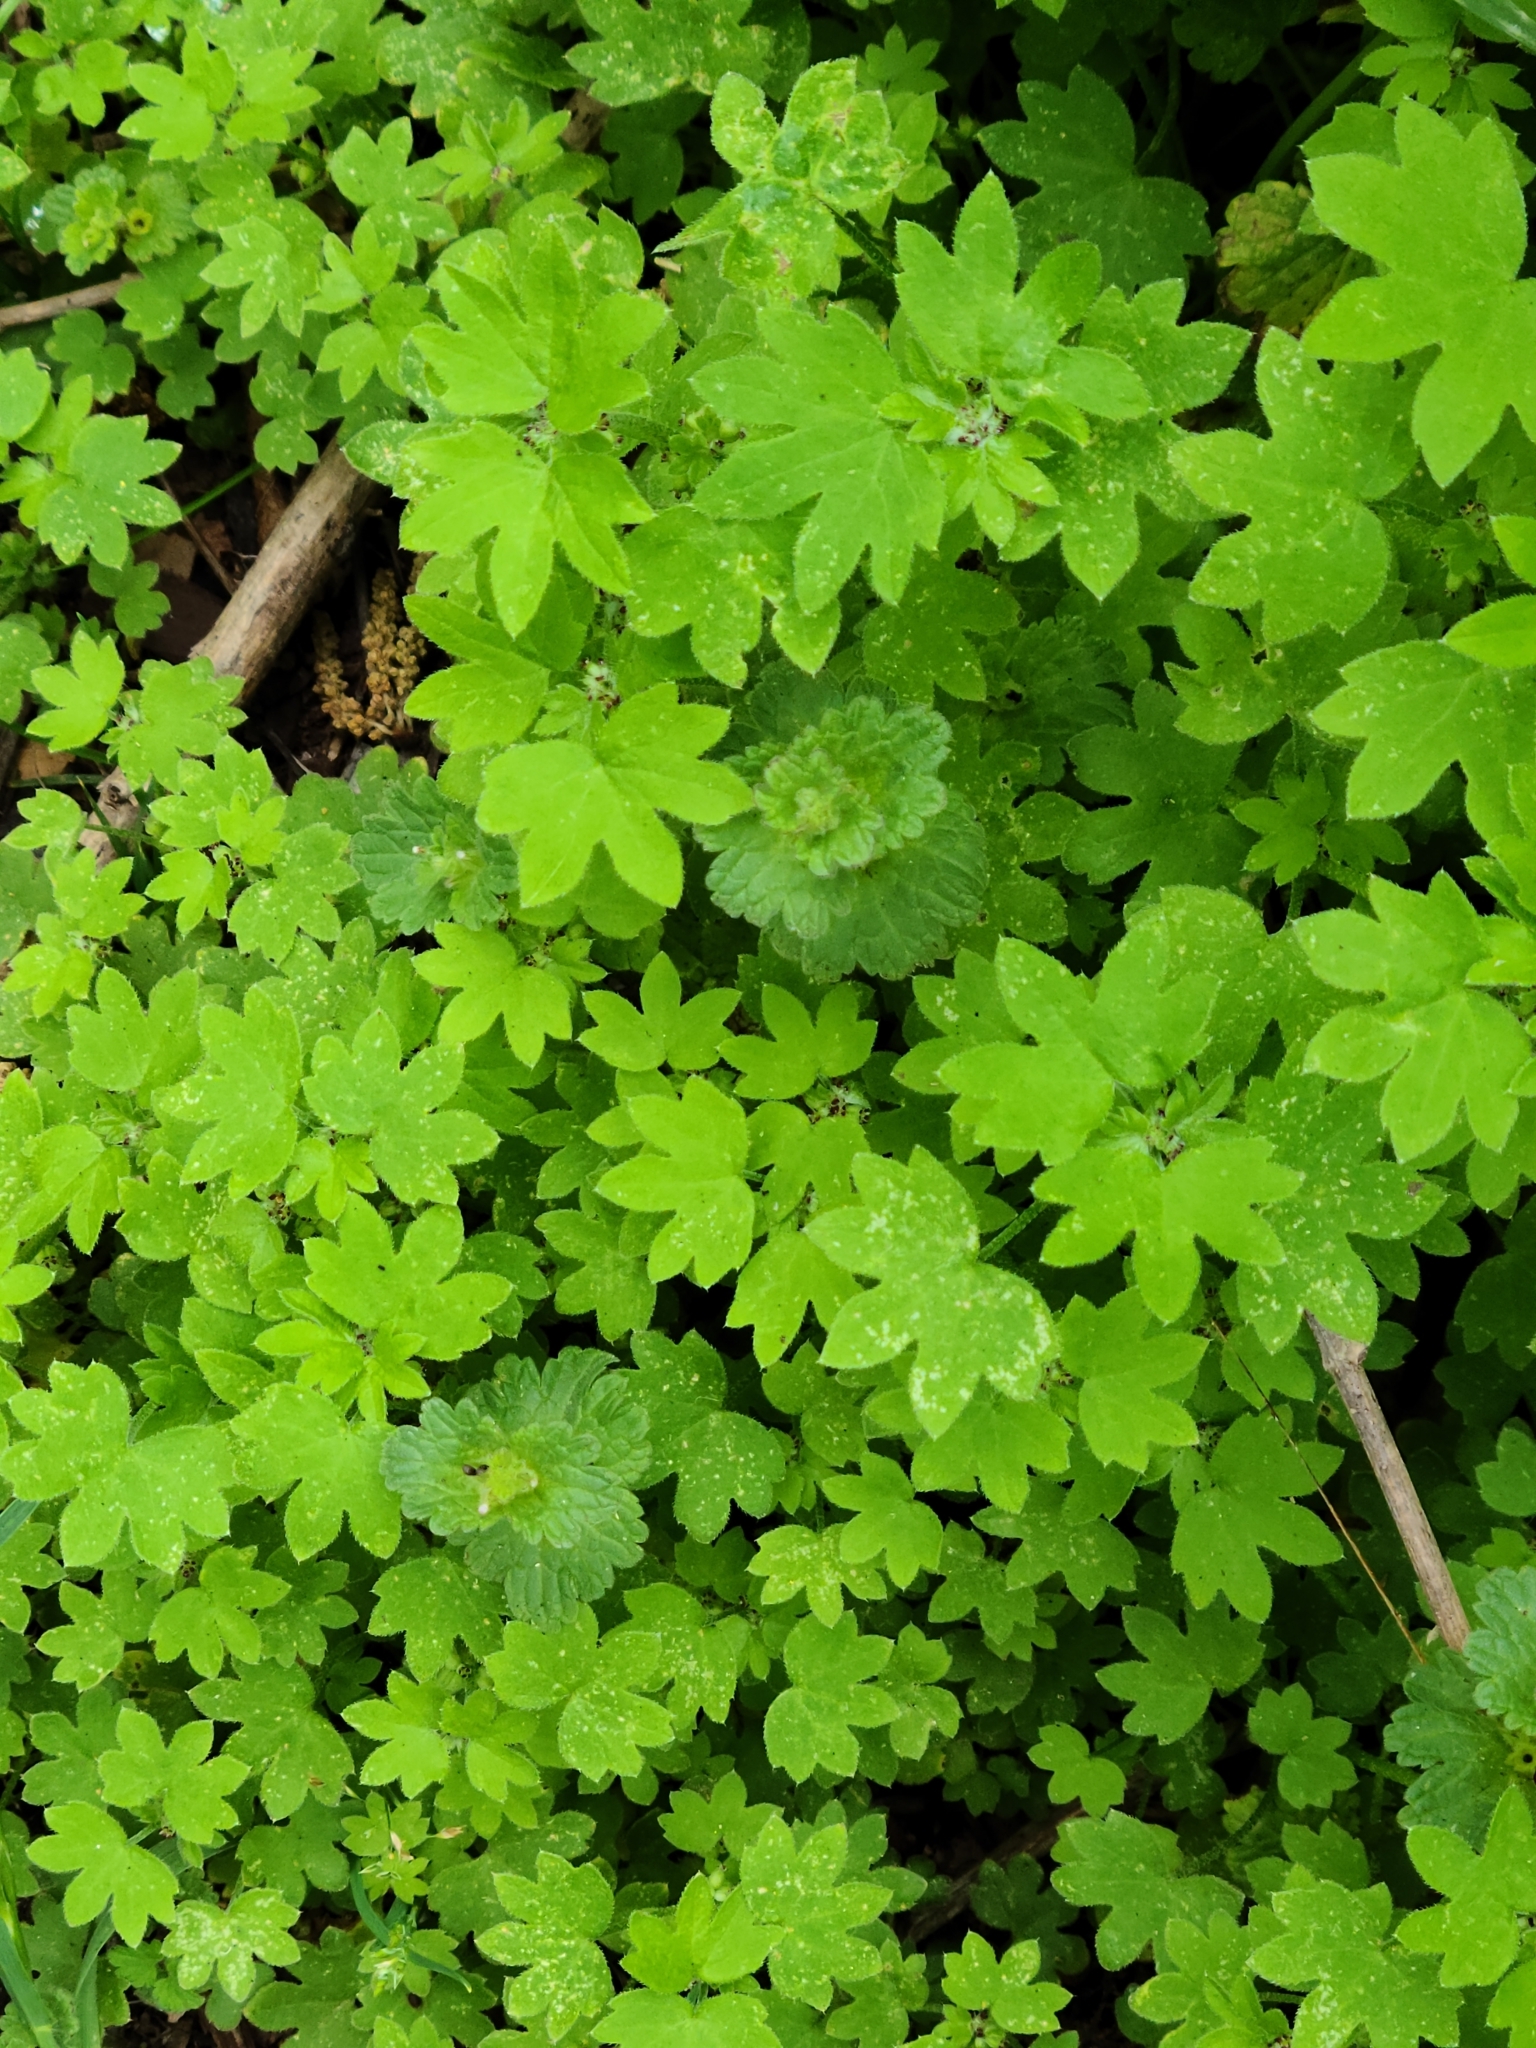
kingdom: Plantae
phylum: Tracheophyta
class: Magnoliopsida
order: Apiales
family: Apiaceae
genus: Bowlesia
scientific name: Bowlesia incana
